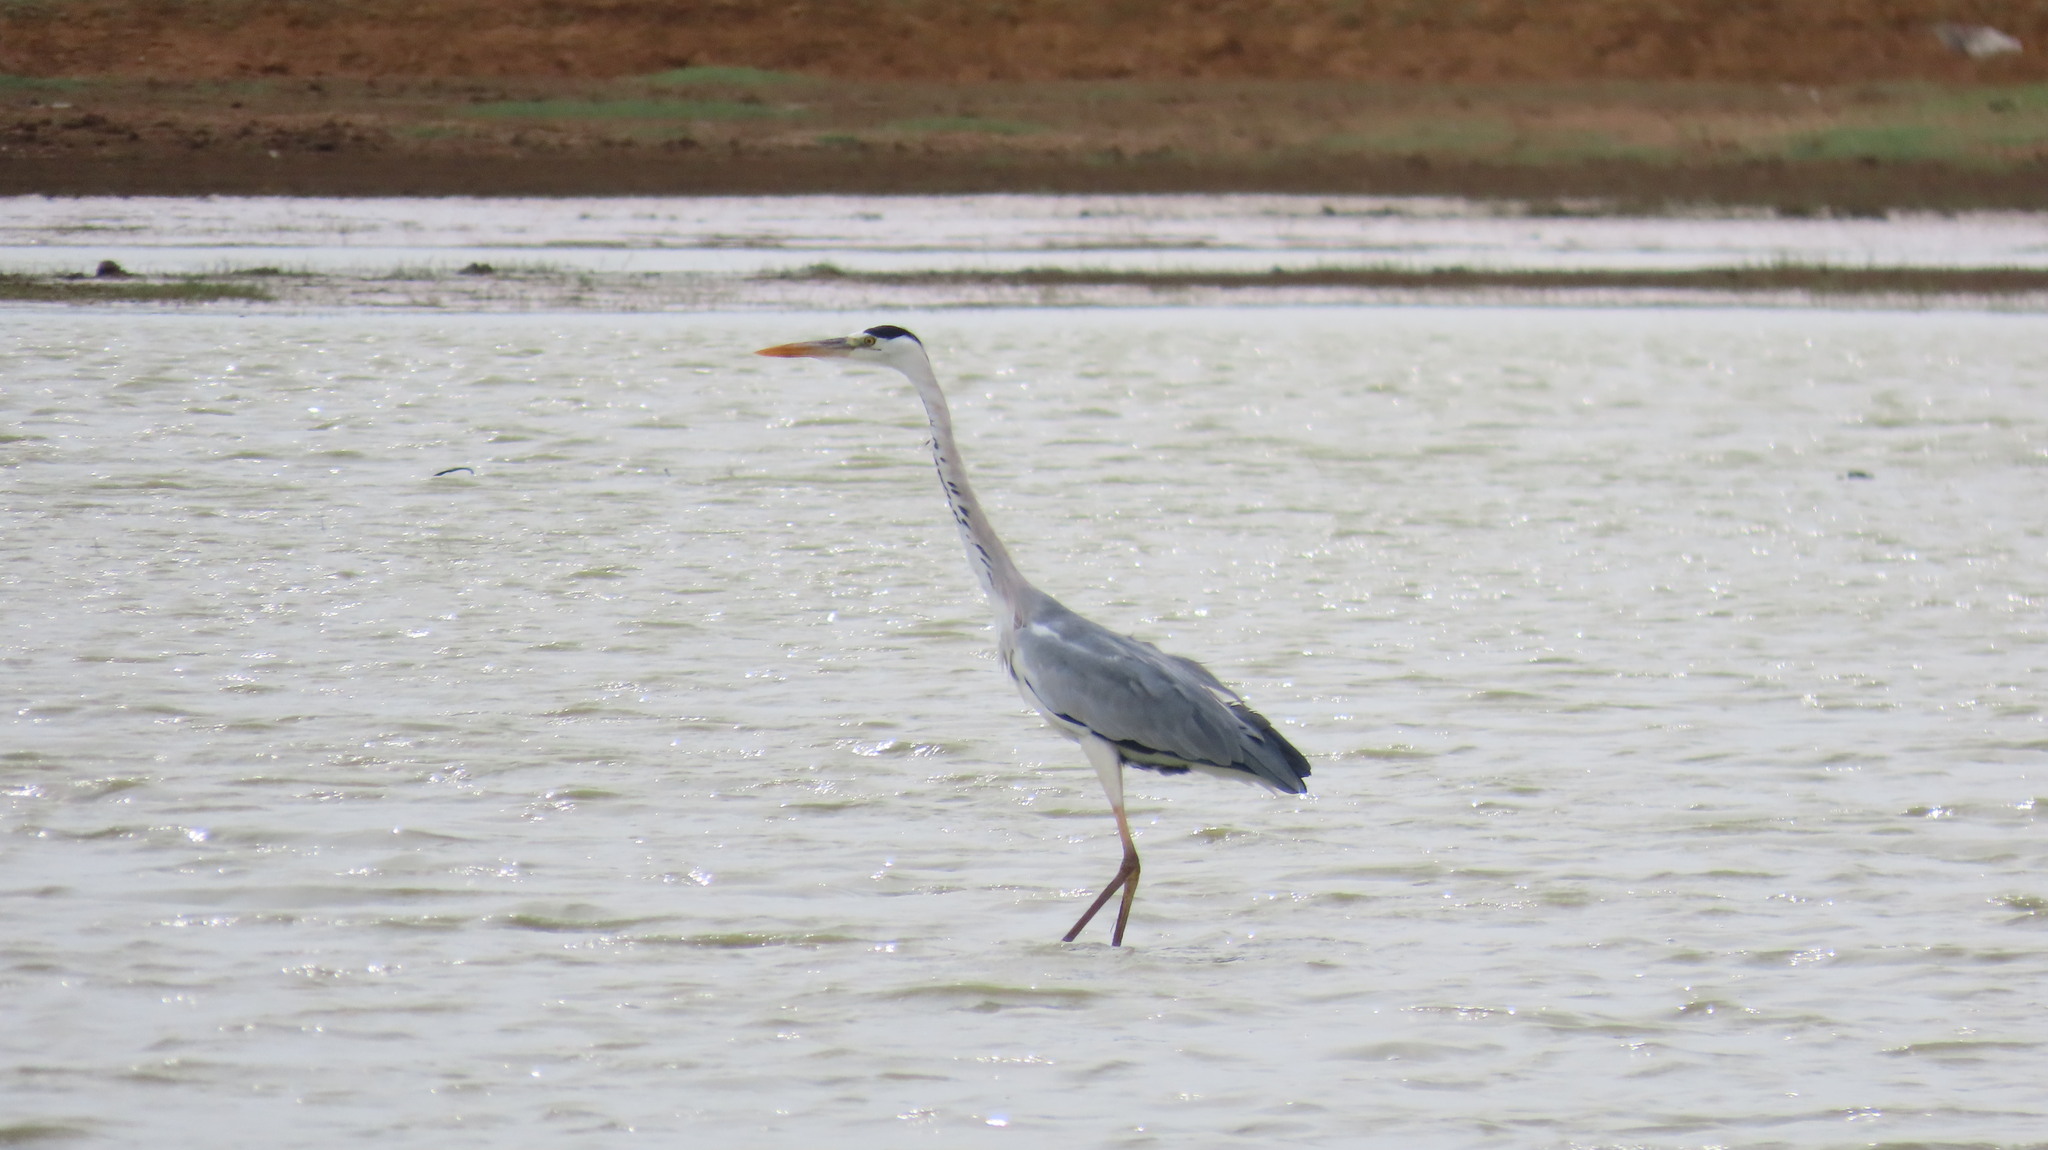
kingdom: Animalia
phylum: Chordata
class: Aves
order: Pelecaniformes
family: Ardeidae
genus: Ardea
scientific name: Ardea cinerea
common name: Grey heron
